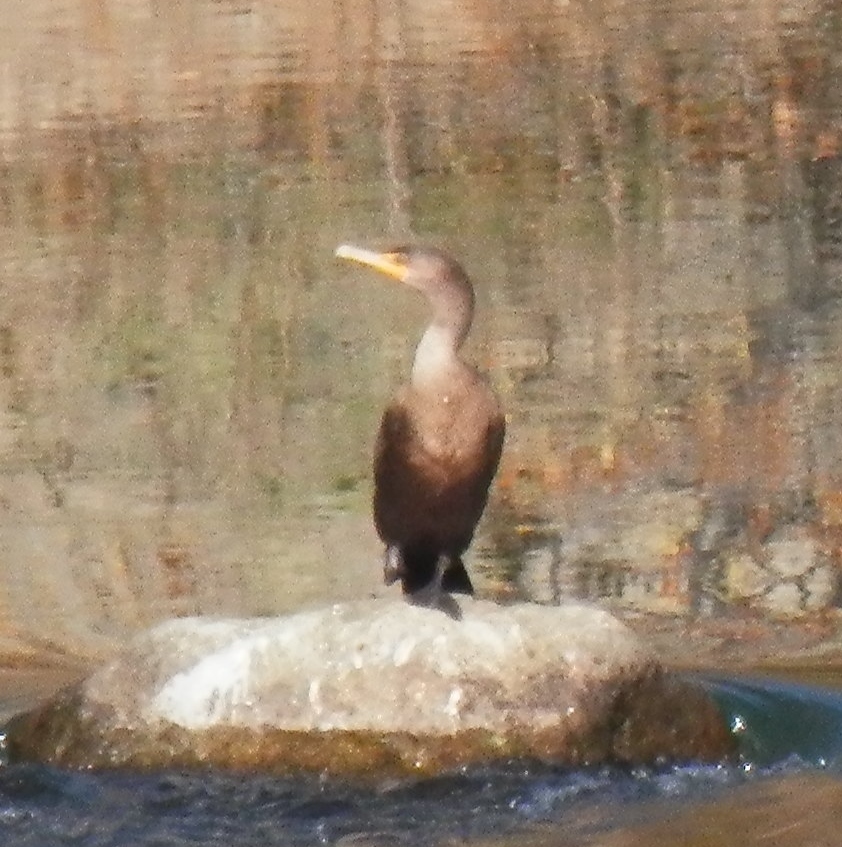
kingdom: Animalia
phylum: Chordata
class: Aves
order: Suliformes
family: Phalacrocoracidae
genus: Phalacrocorax
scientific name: Phalacrocorax auritus
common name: Double-crested cormorant
